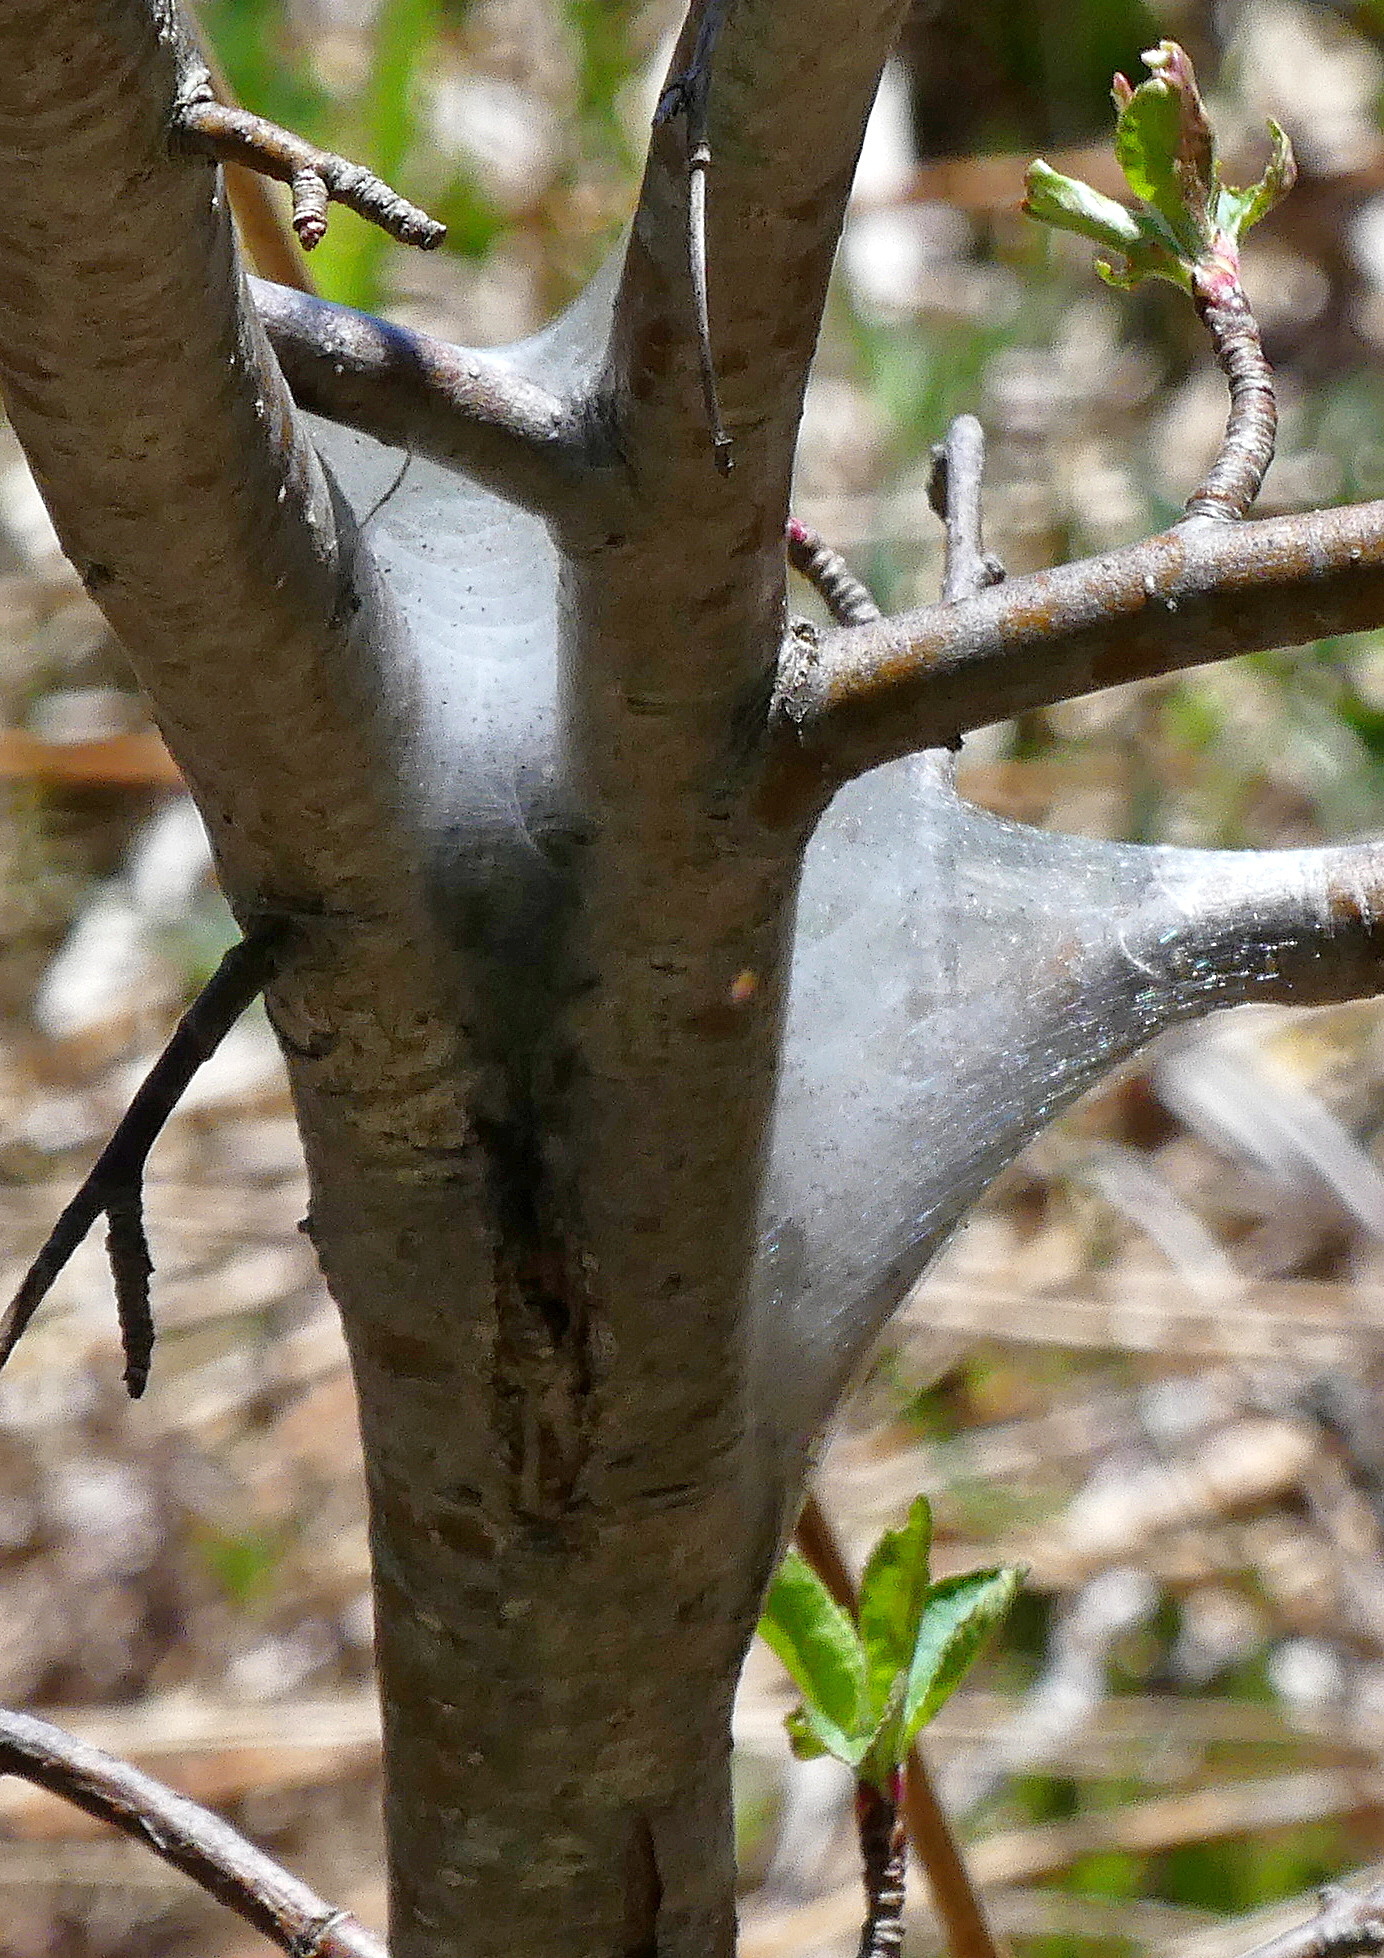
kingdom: Animalia
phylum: Arthropoda
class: Insecta
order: Lepidoptera
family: Lasiocampidae
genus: Malacosoma
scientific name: Malacosoma americana
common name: Eastern tent caterpillar moth
